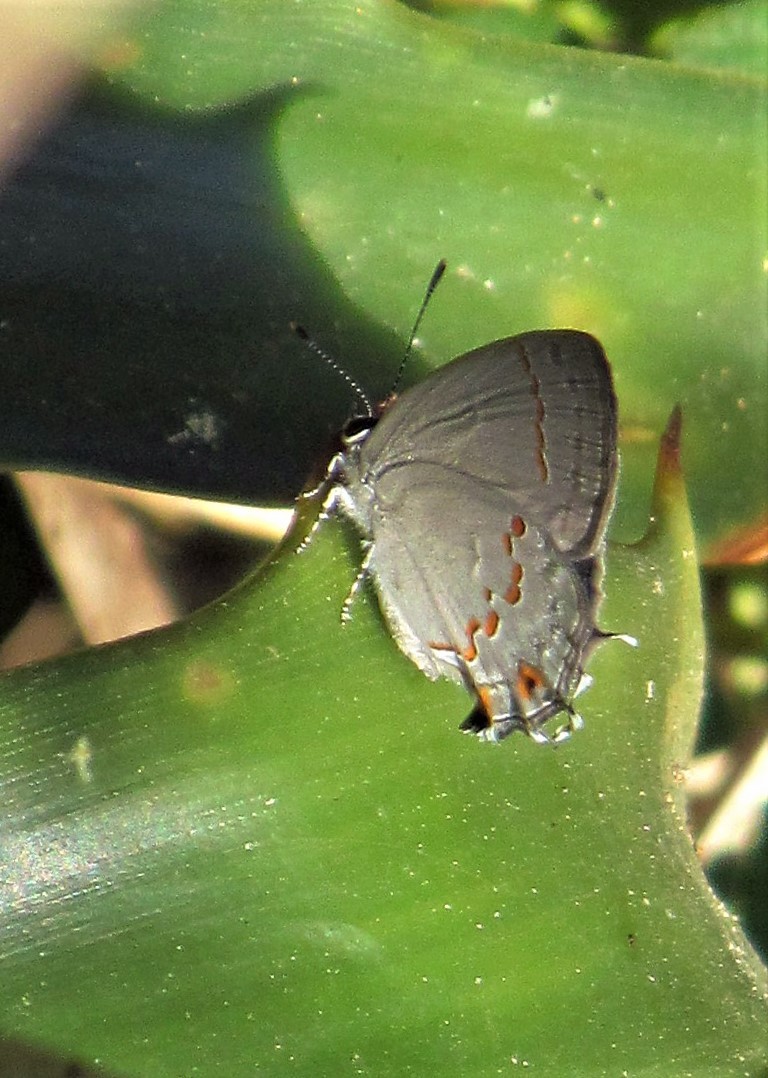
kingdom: Animalia
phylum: Arthropoda
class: Insecta
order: Lepidoptera
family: Lycaenidae
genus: Strymon
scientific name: Strymon
